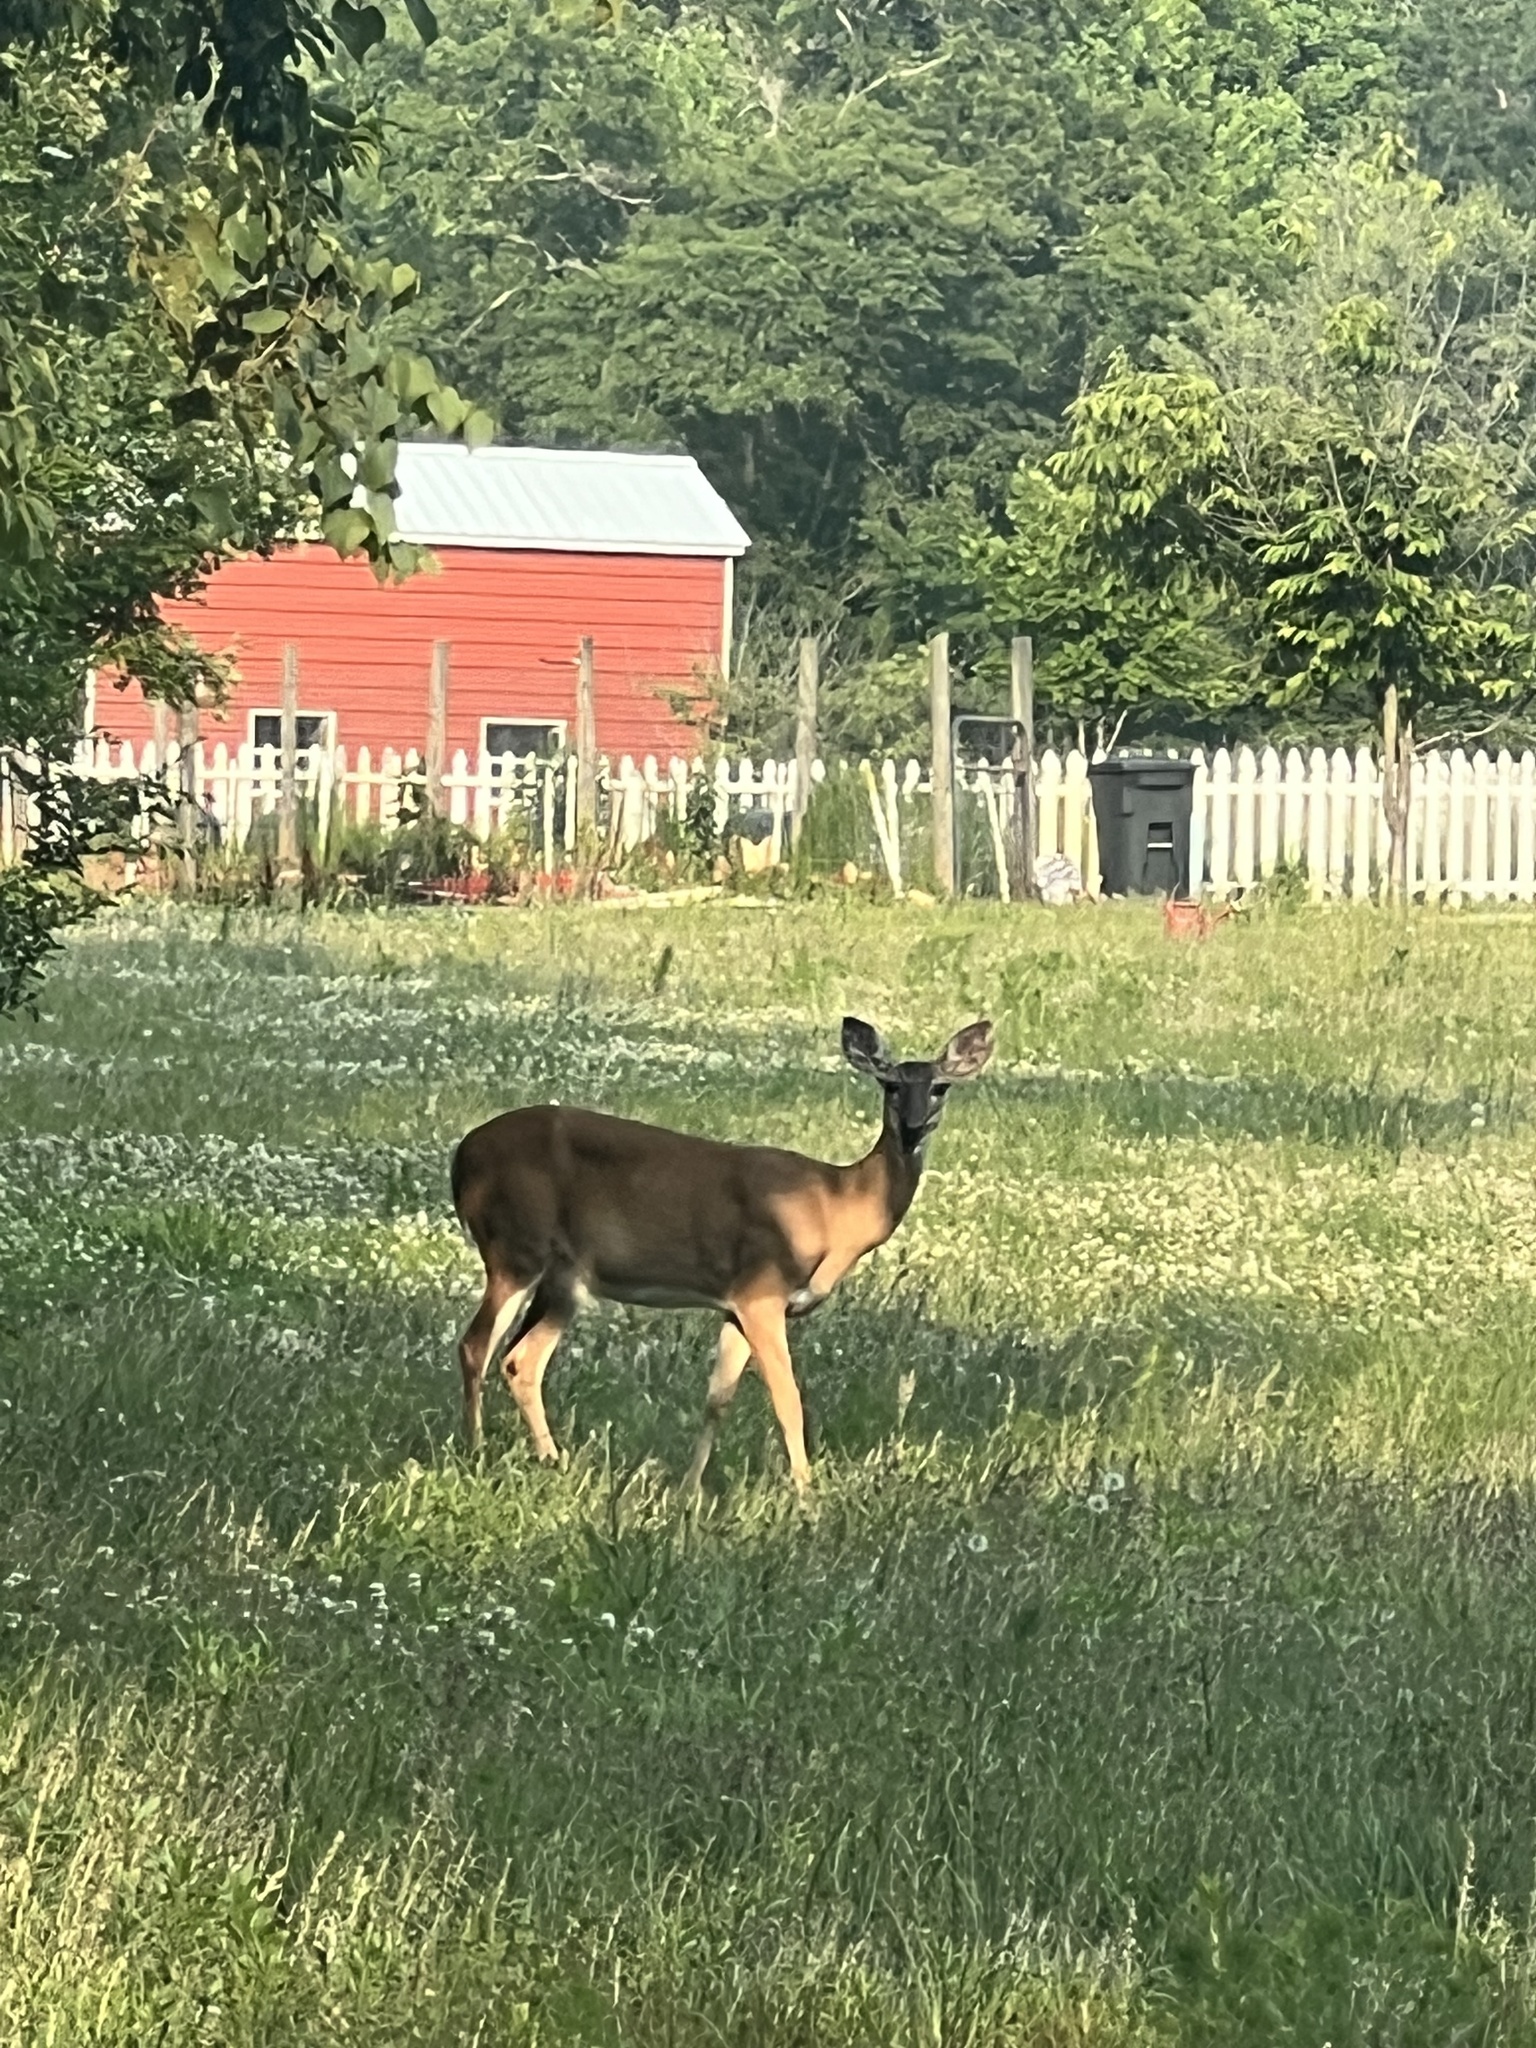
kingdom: Animalia
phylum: Chordata
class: Mammalia
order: Artiodactyla
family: Cervidae
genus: Odocoileus
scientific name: Odocoileus virginianus
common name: White-tailed deer
